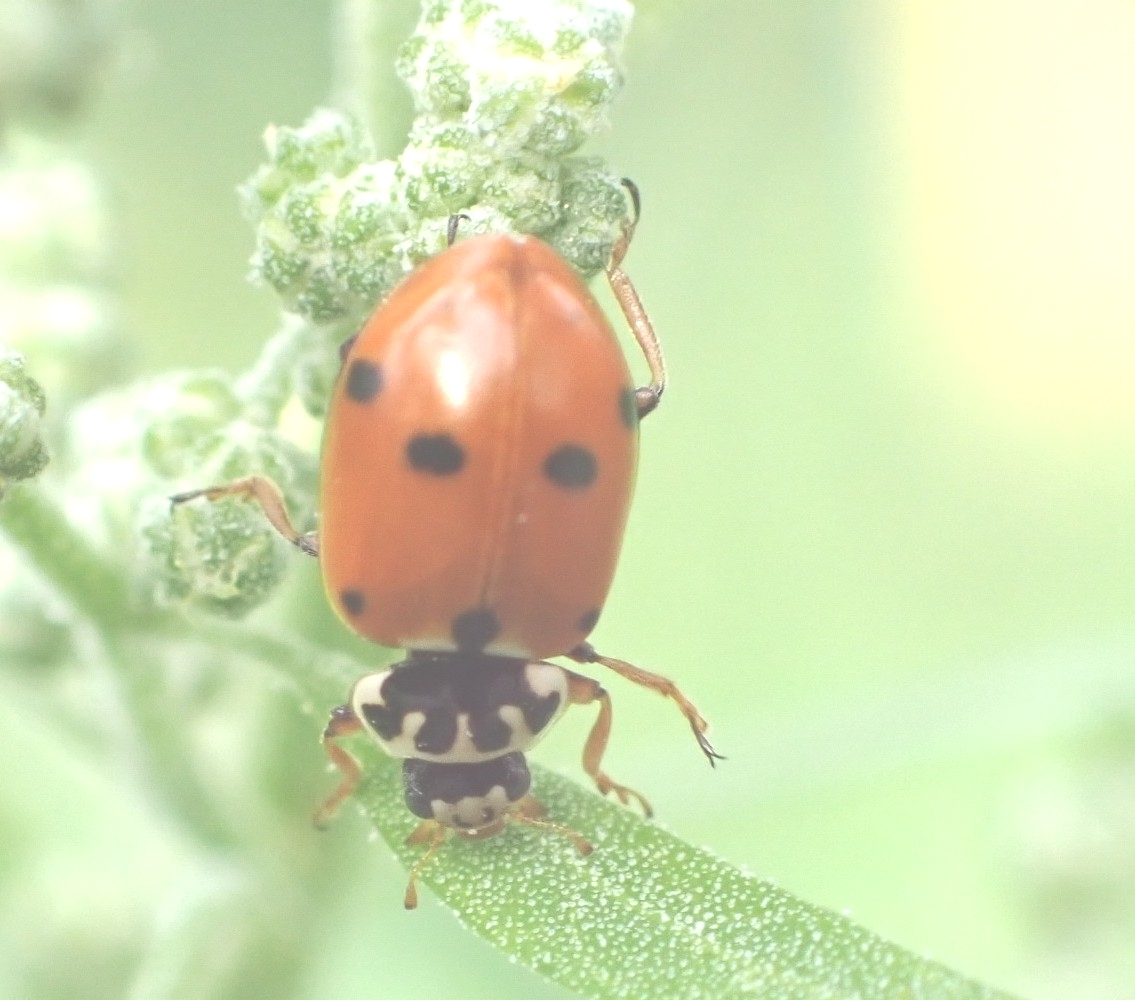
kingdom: Animalia
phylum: Arthropoda
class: Insecta
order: Coleoptera
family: Coccinellidae
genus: Hippodamia
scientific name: Hippodamia variegata
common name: Ladybird beetle
